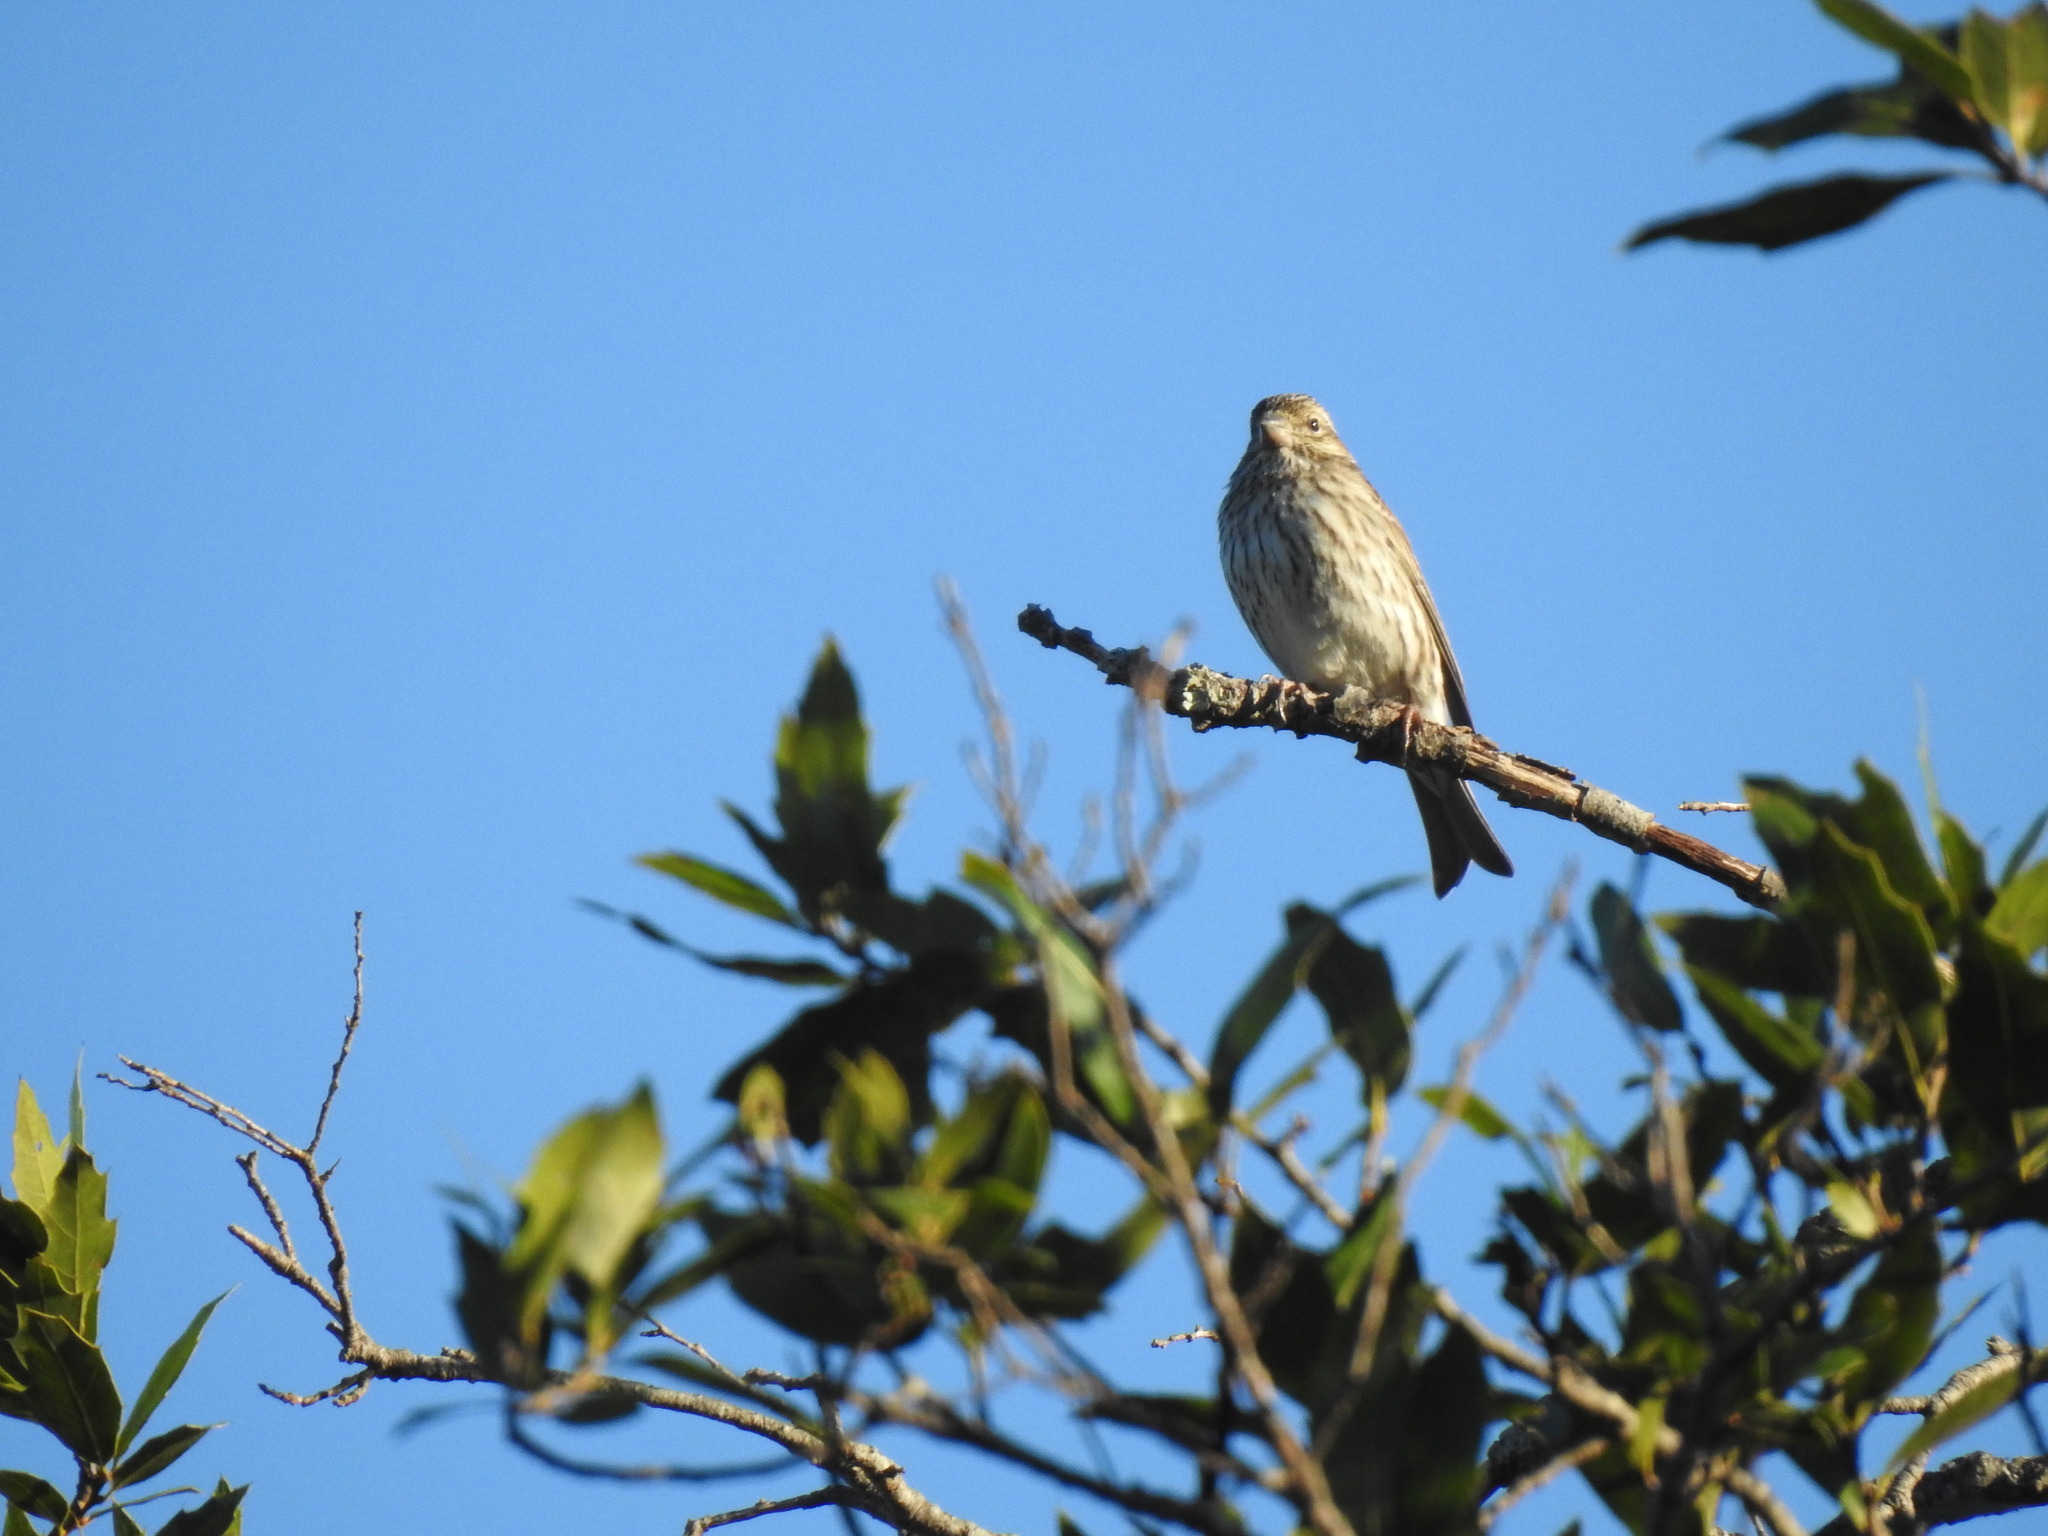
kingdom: Animalia
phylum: Chordata
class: Aves
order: Passeriformes
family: Fringillidae
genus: Haemorhous
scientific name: Haemorhous cassinii
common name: Cassin's finch
